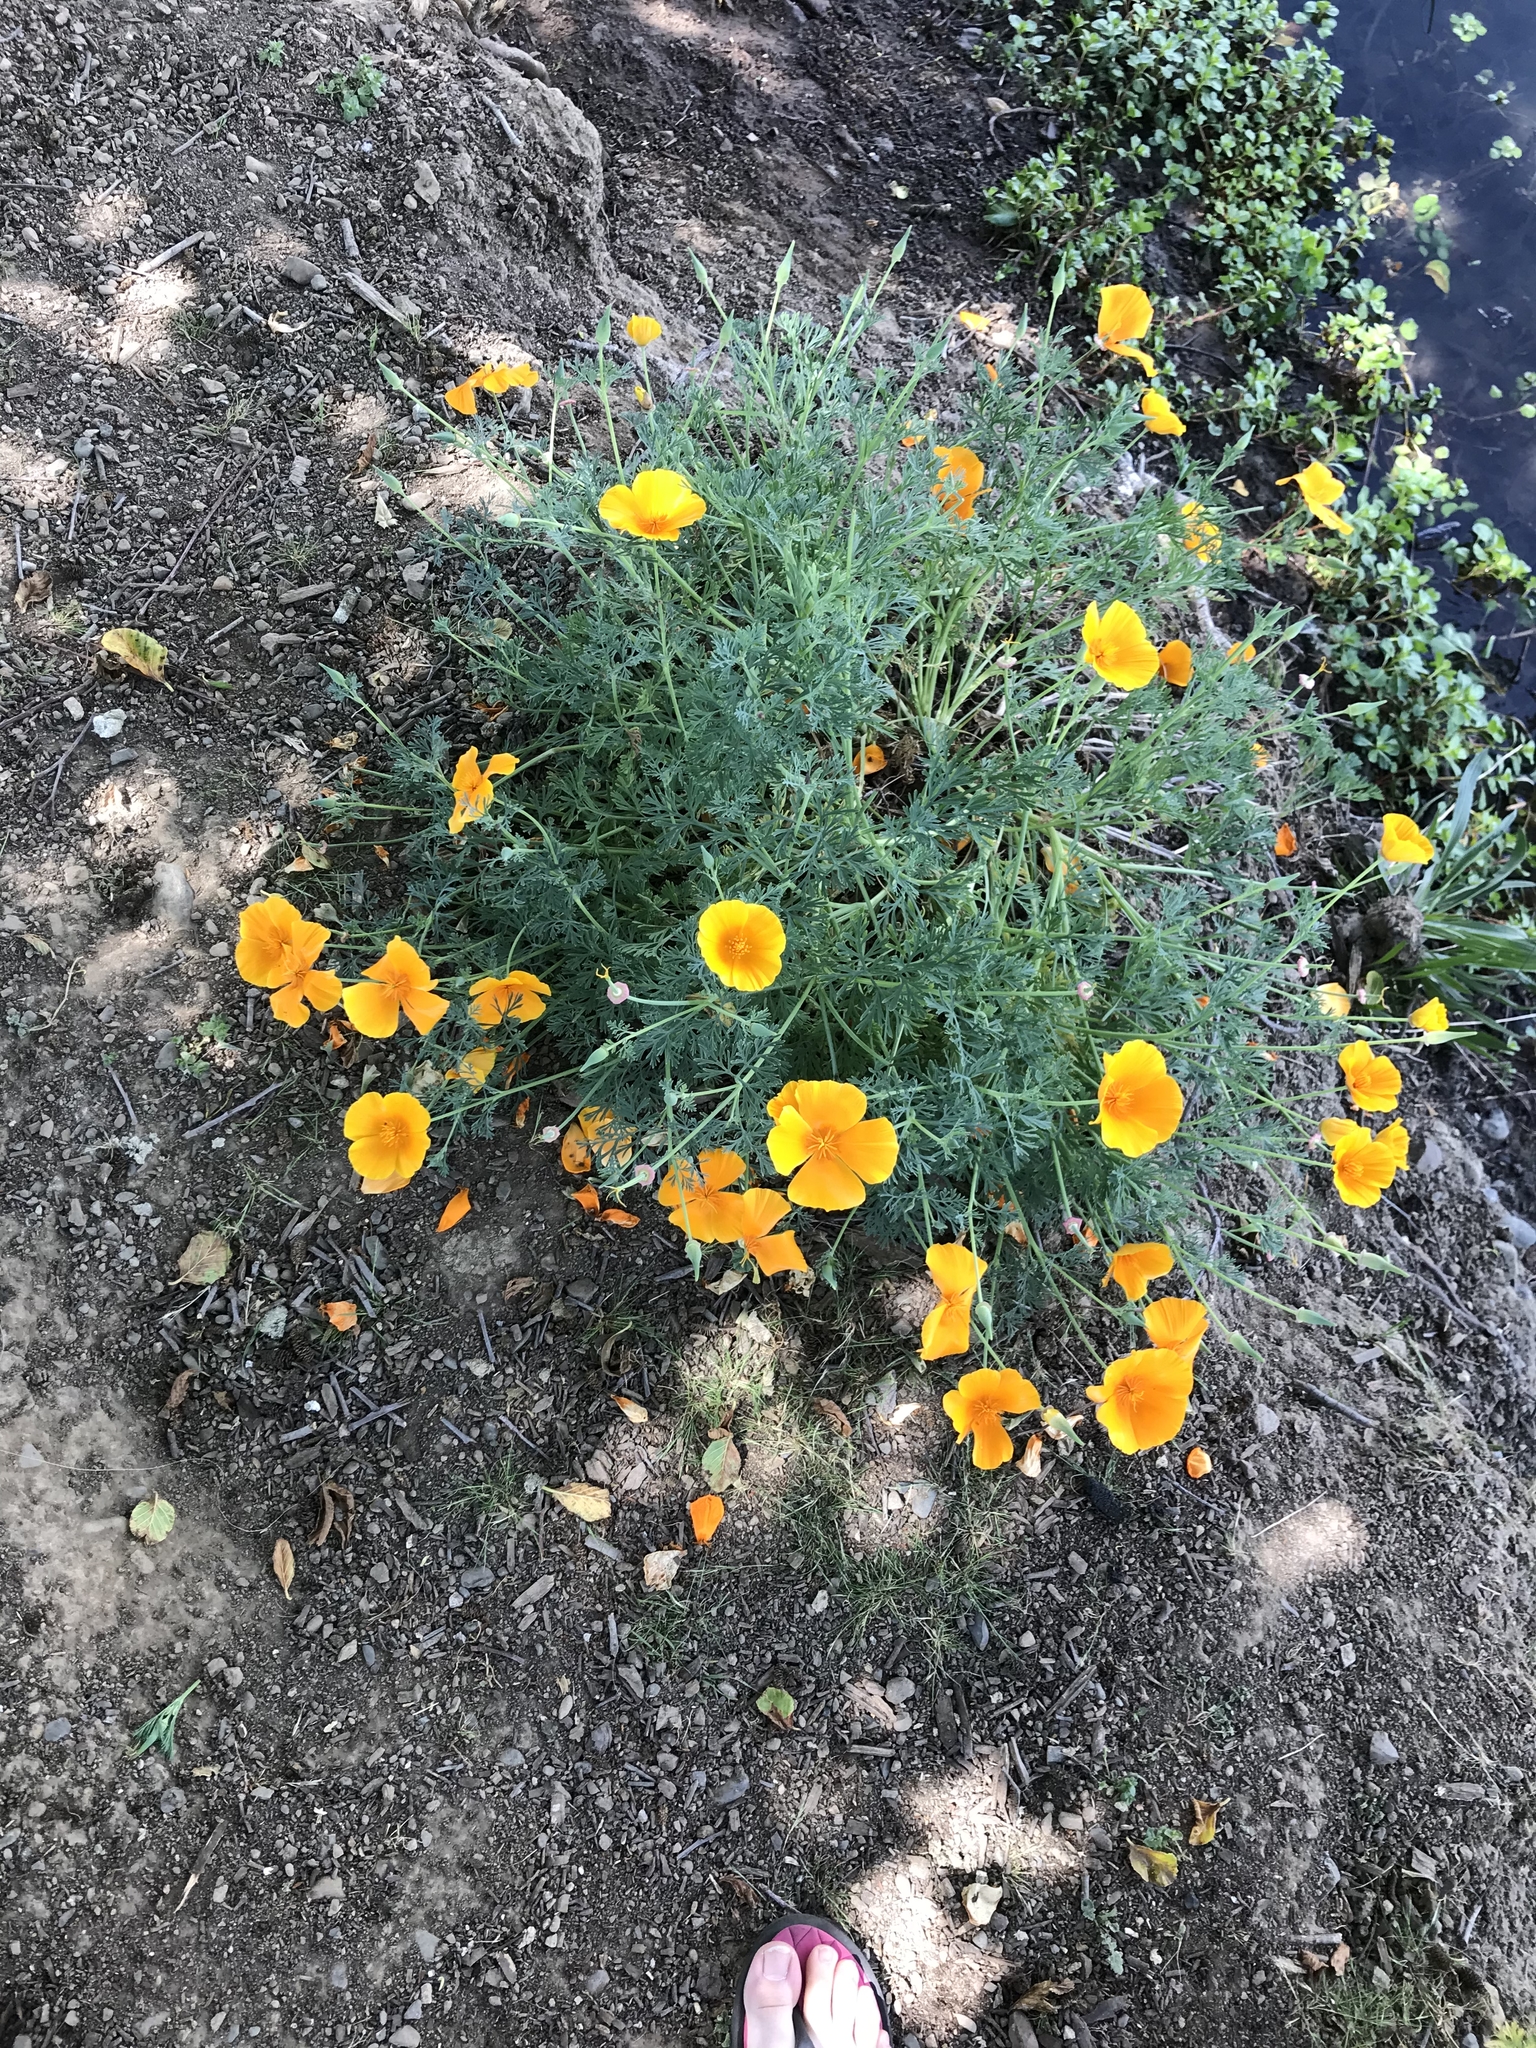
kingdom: Plantae
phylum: Tracheophyta
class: Magnoliopsida
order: Ranunculales
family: Papaveraceae
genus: Eschscholzia
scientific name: Eschscholzia californica
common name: California poppy
